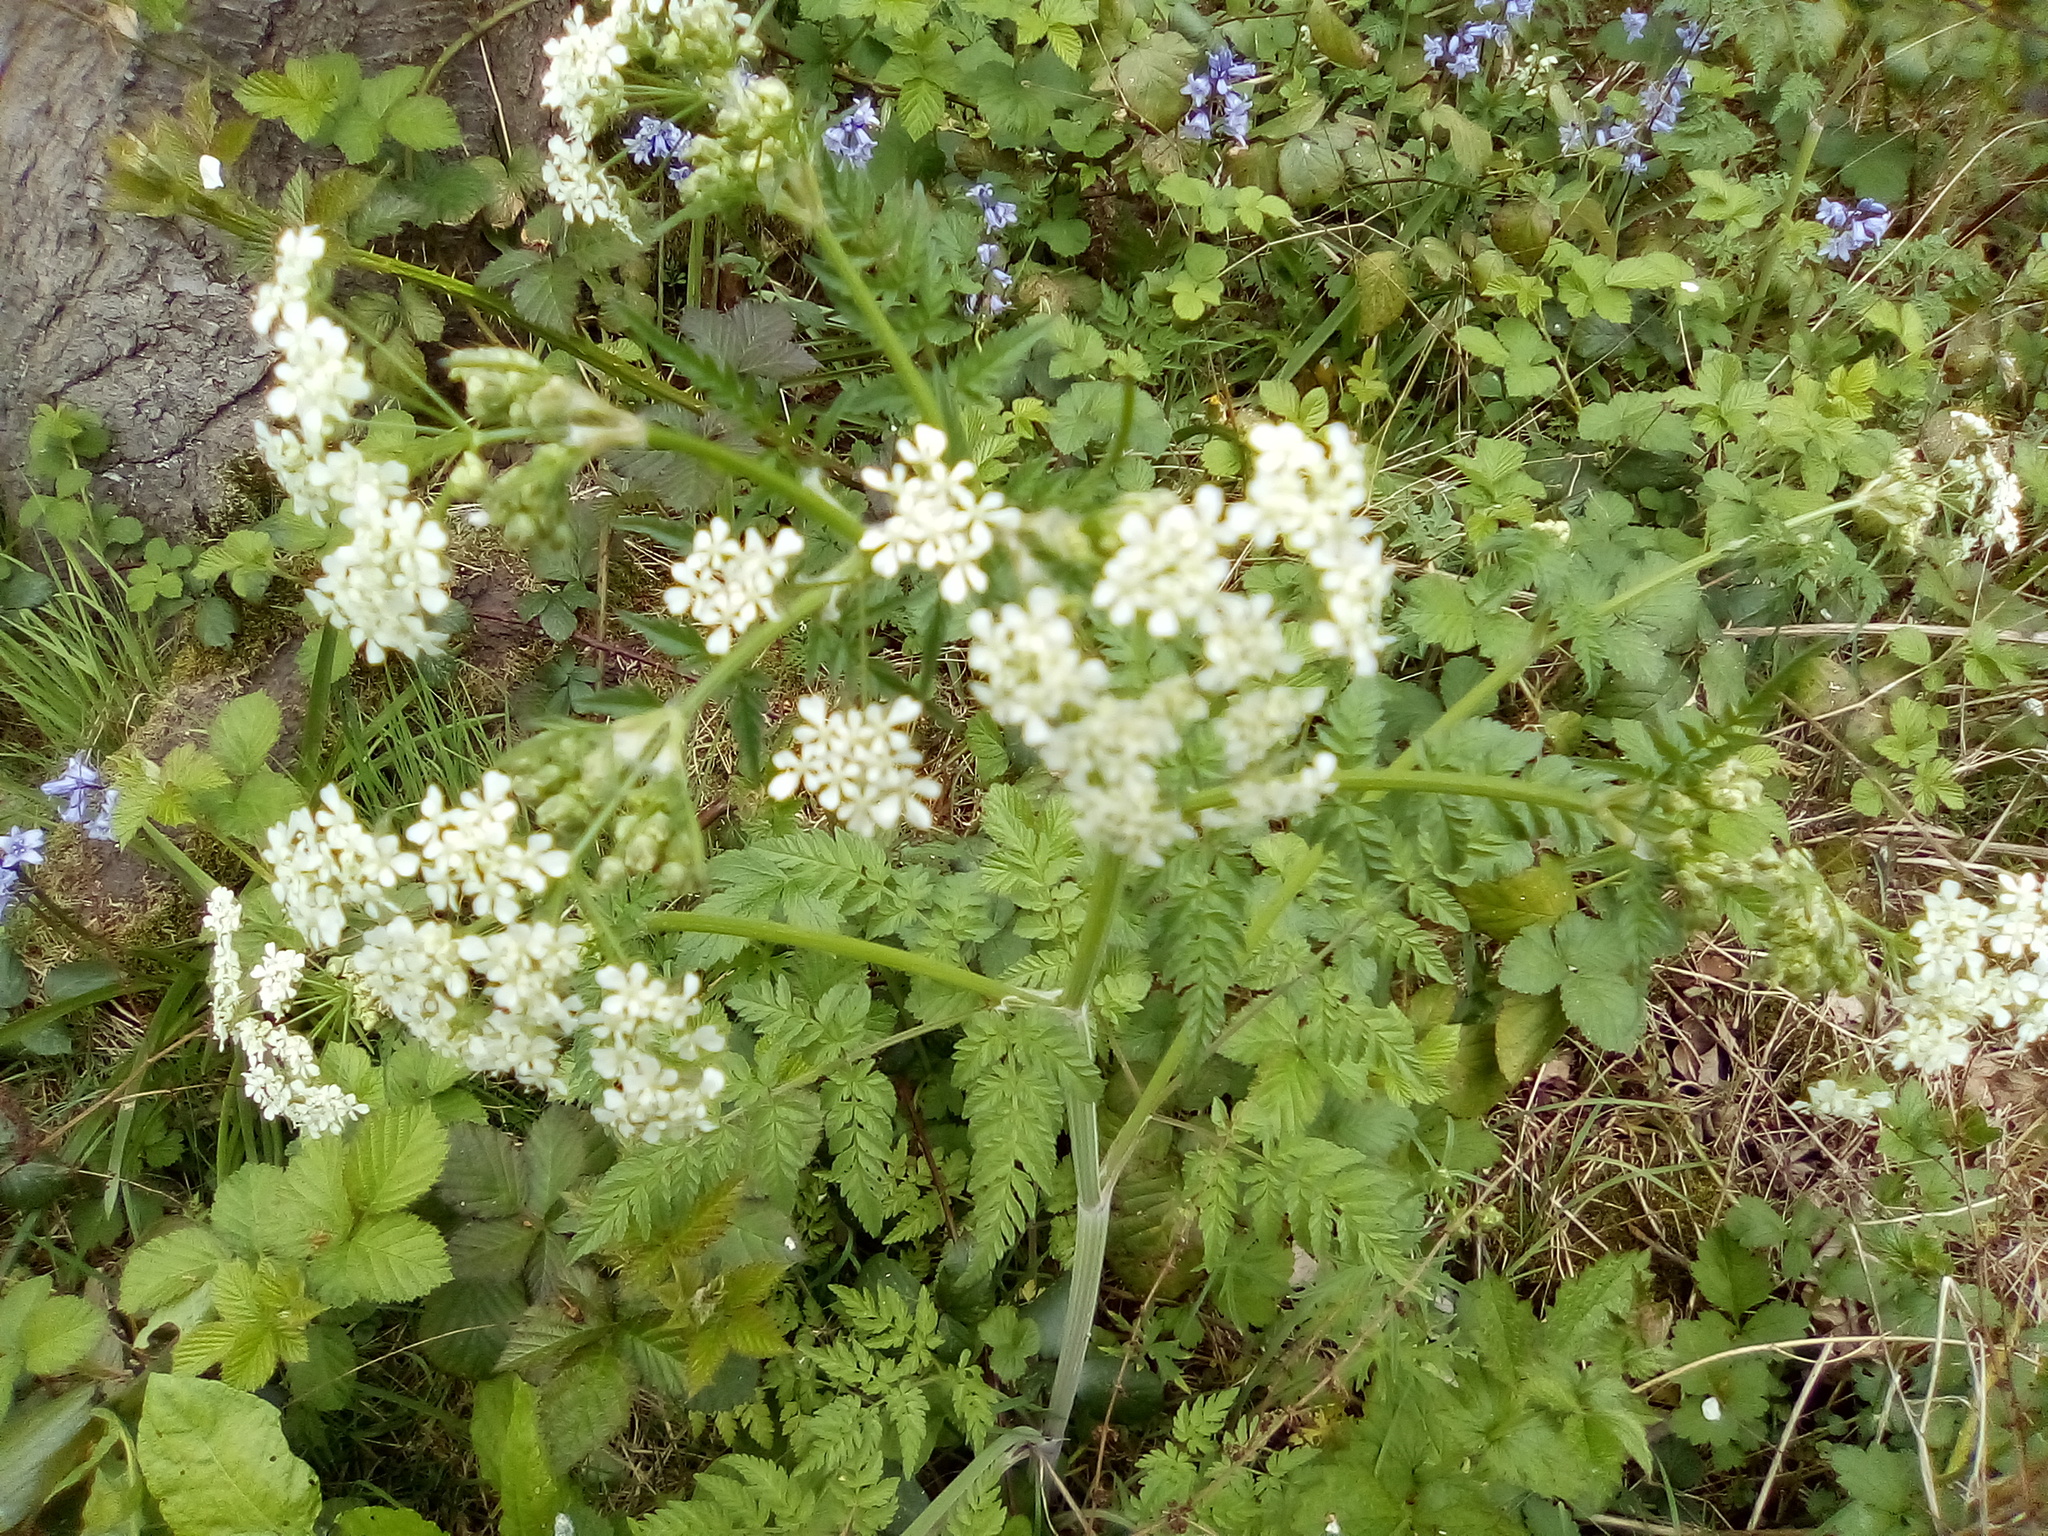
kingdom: Plantae
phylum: Tracheophyta
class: Magnoliopsida
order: Apiales
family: Apiaceae
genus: Anthriscus
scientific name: Anthriscus sylvestris
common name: Cow parsley
